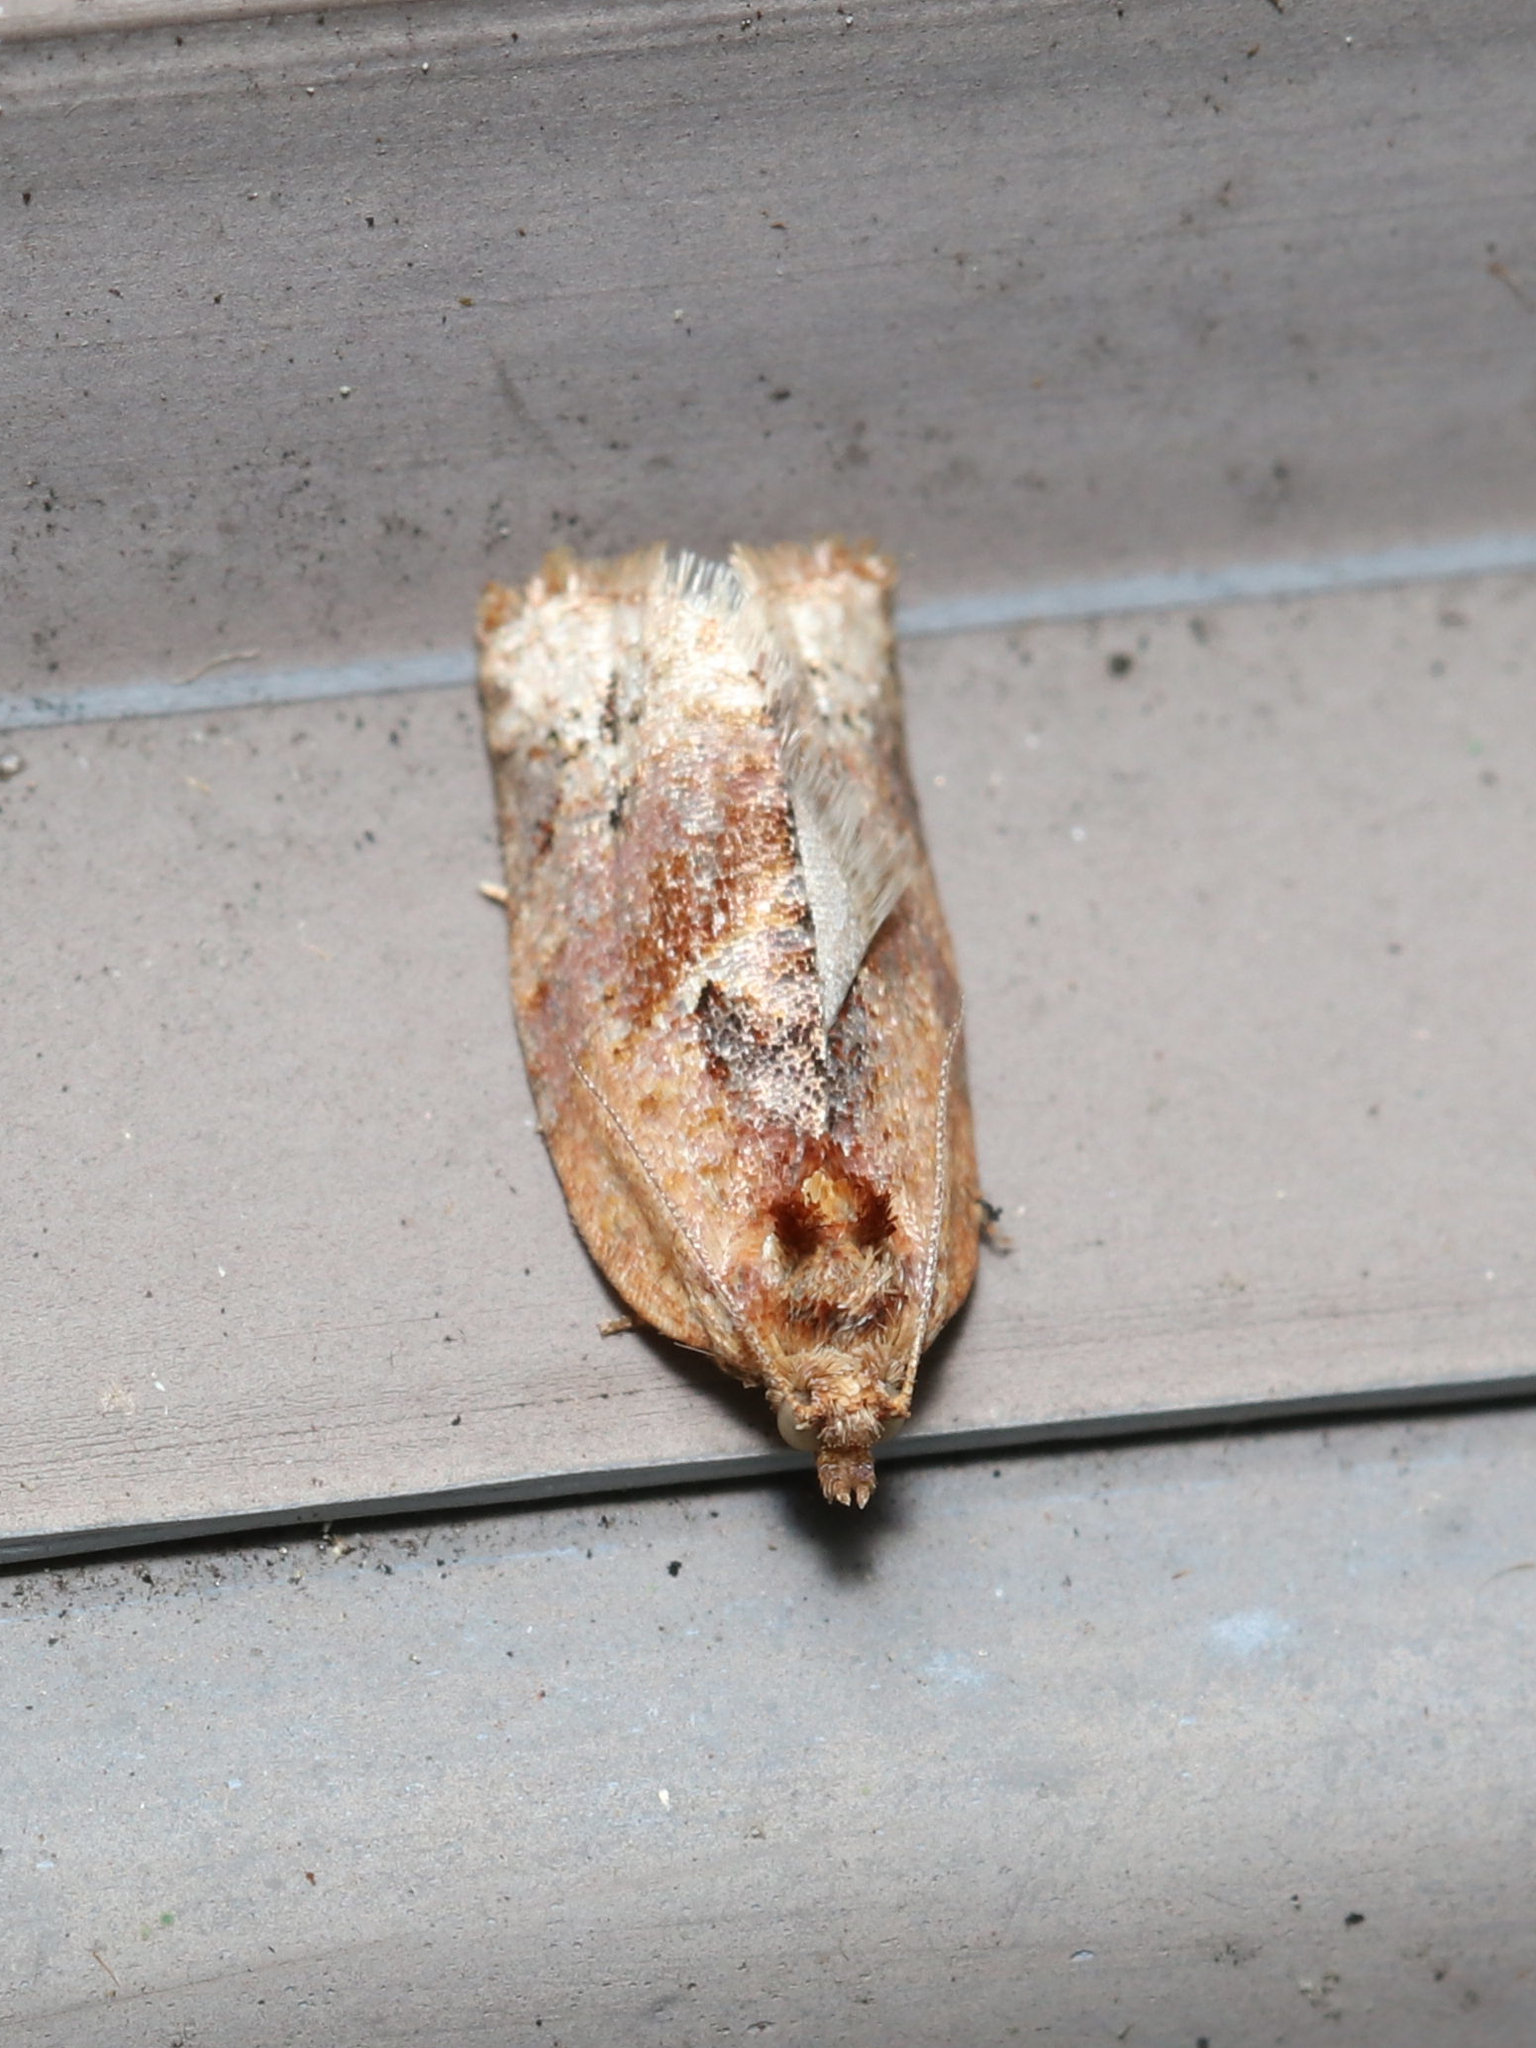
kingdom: Animalia
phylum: Arthropoda
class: Insecta
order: Lepidoptera
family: Tortricidae
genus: Argyrotaenia
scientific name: Argyrotaenia velutinana
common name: Red-banded leafroller moth
